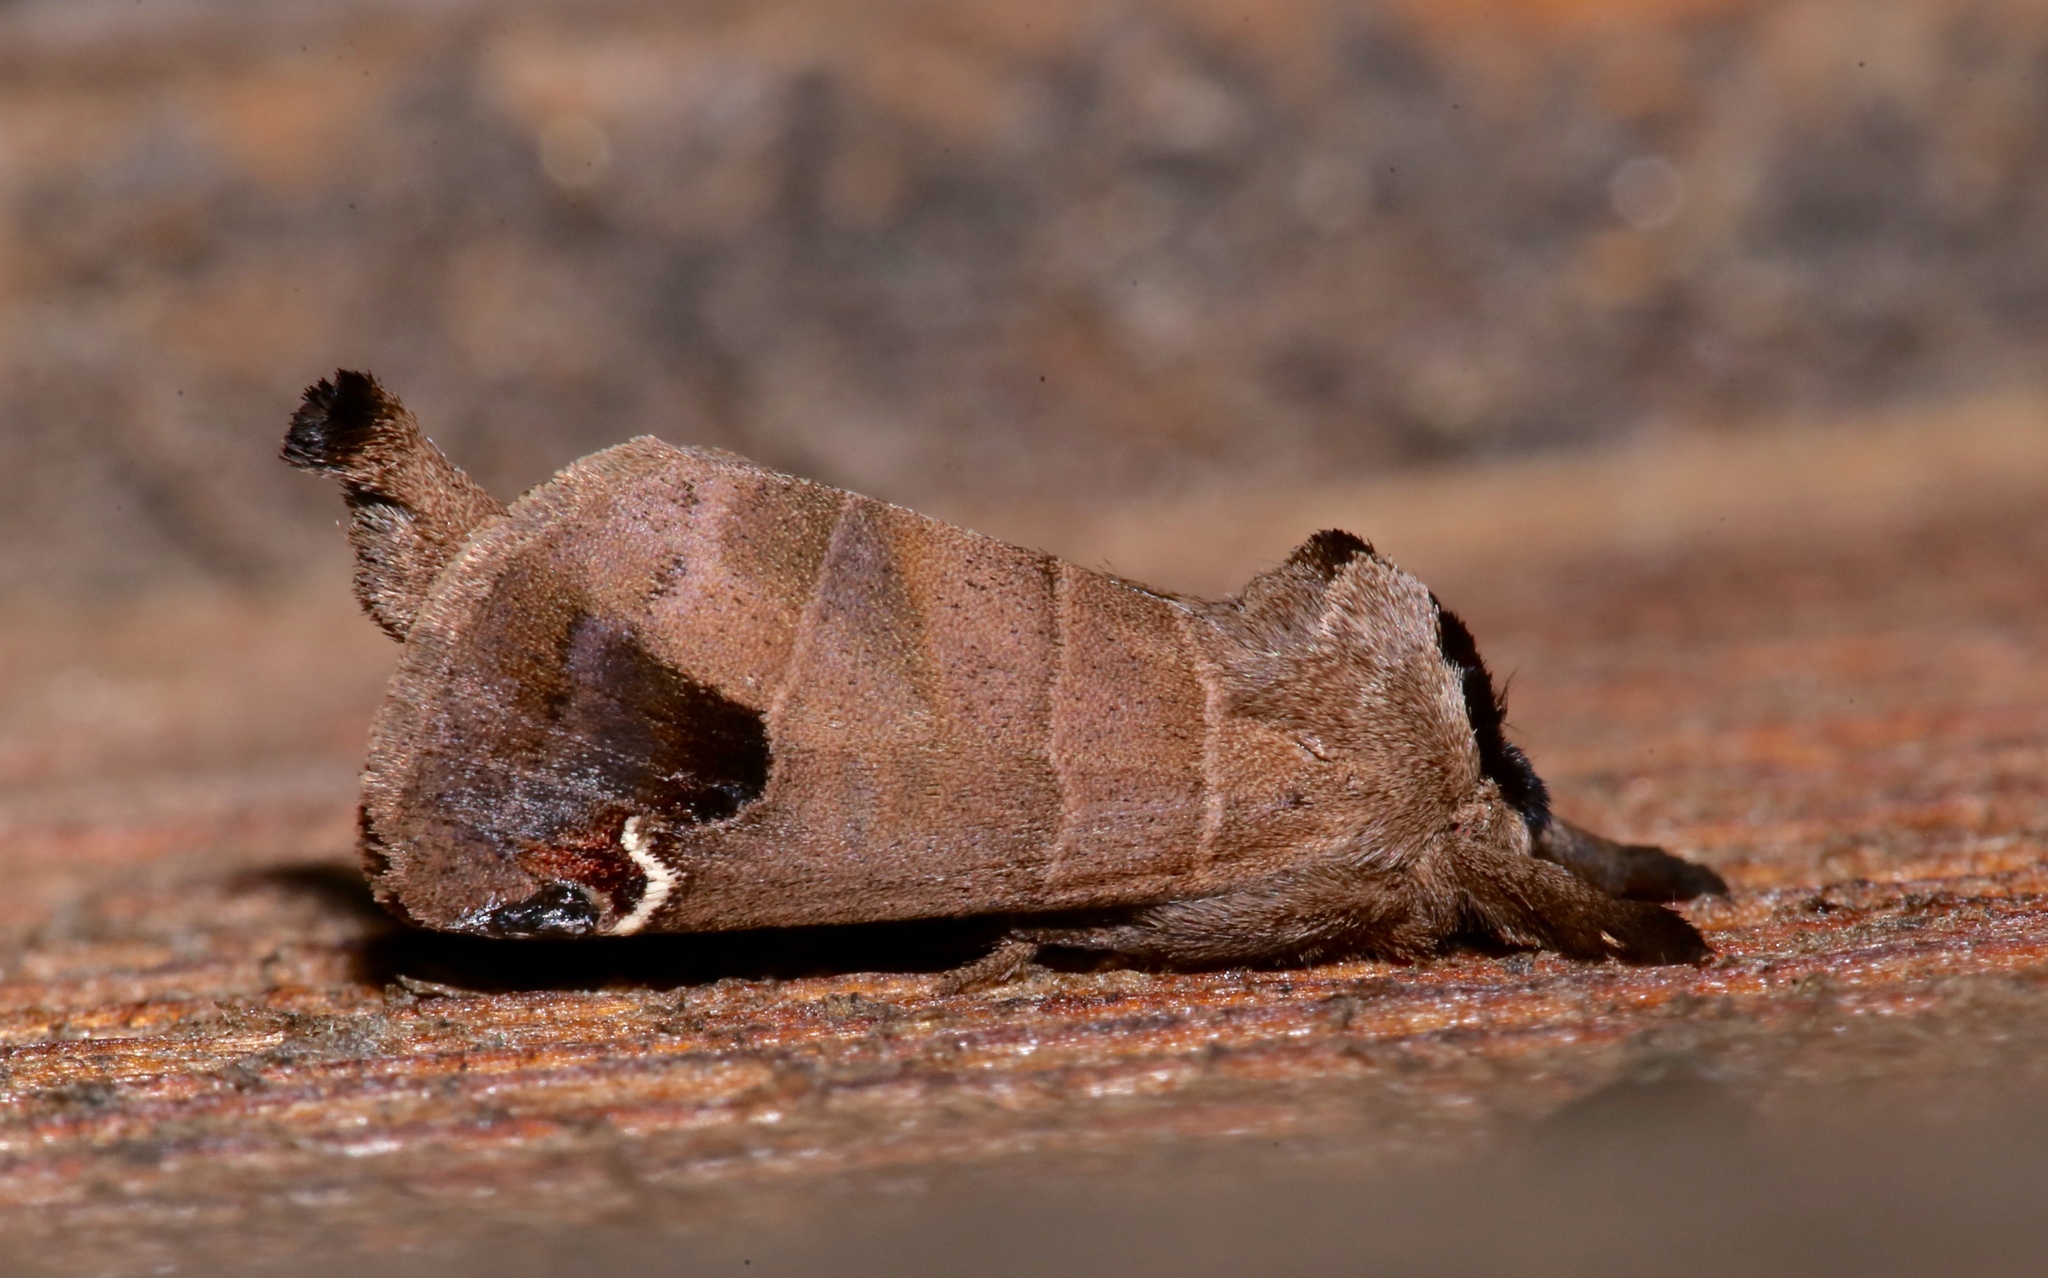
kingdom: Animalia
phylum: Arthropoda
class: Insecta
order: Lepidoptera
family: Notodontidae
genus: Clostera
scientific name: Clostera albosigma
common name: Sigmoid prominent
